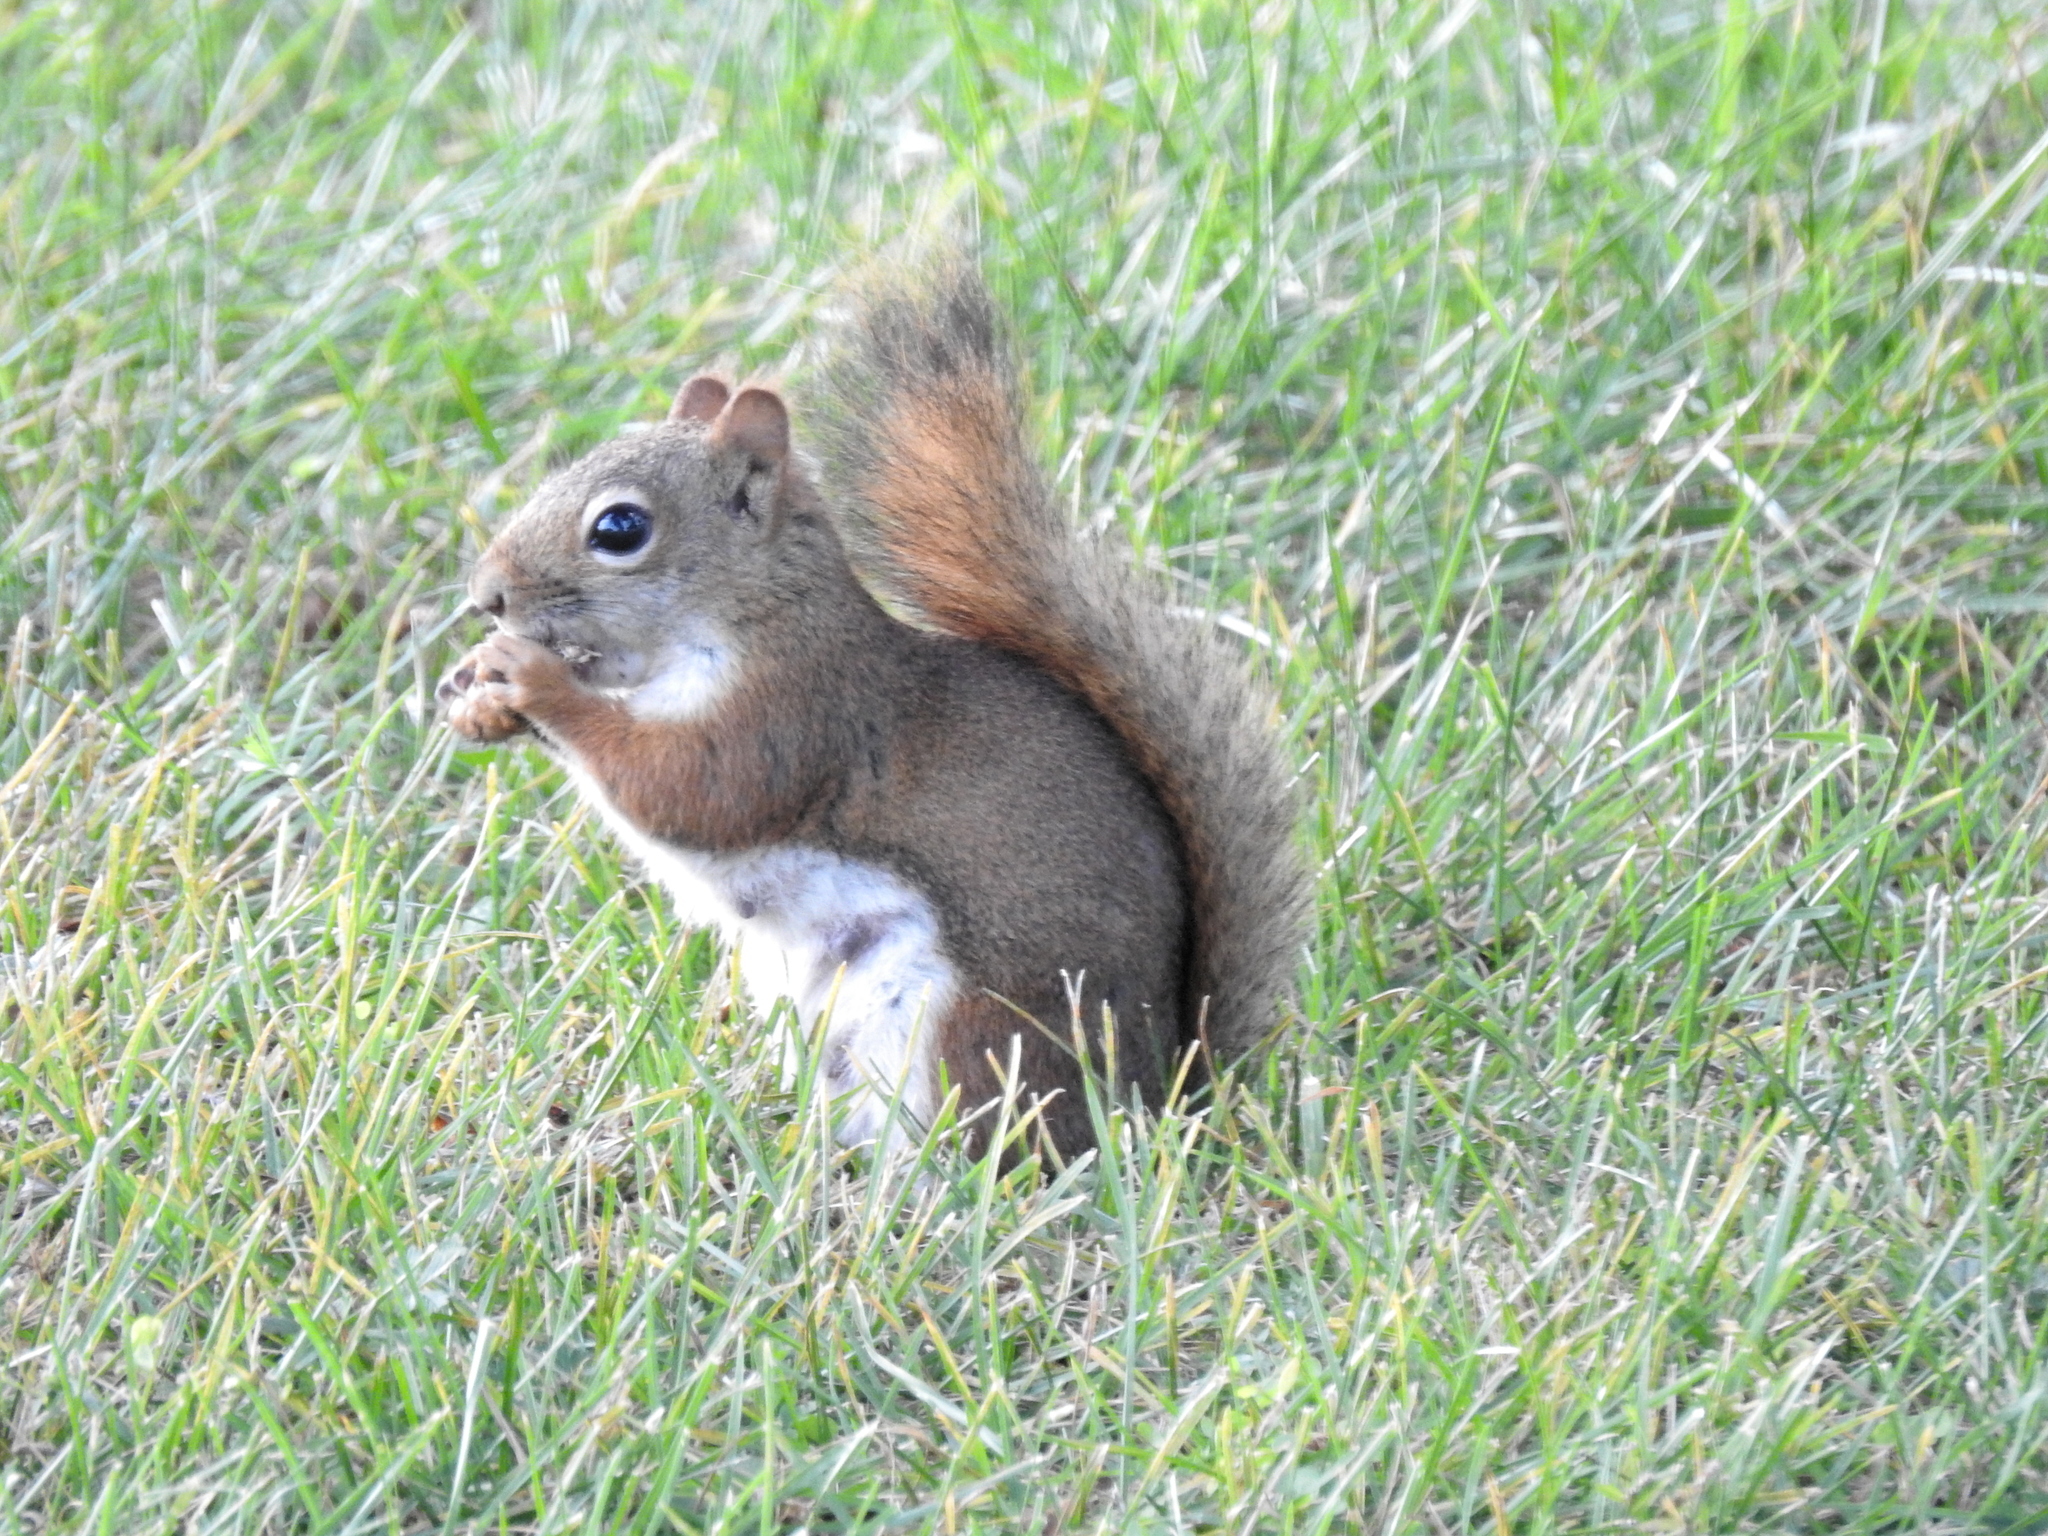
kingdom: Animalia
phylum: Chordata
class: Mammalia
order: Rodentia
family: Sciuridae
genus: Tamiasciurus
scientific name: Tamiasciurus hudsonicus
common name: Red squirrel
